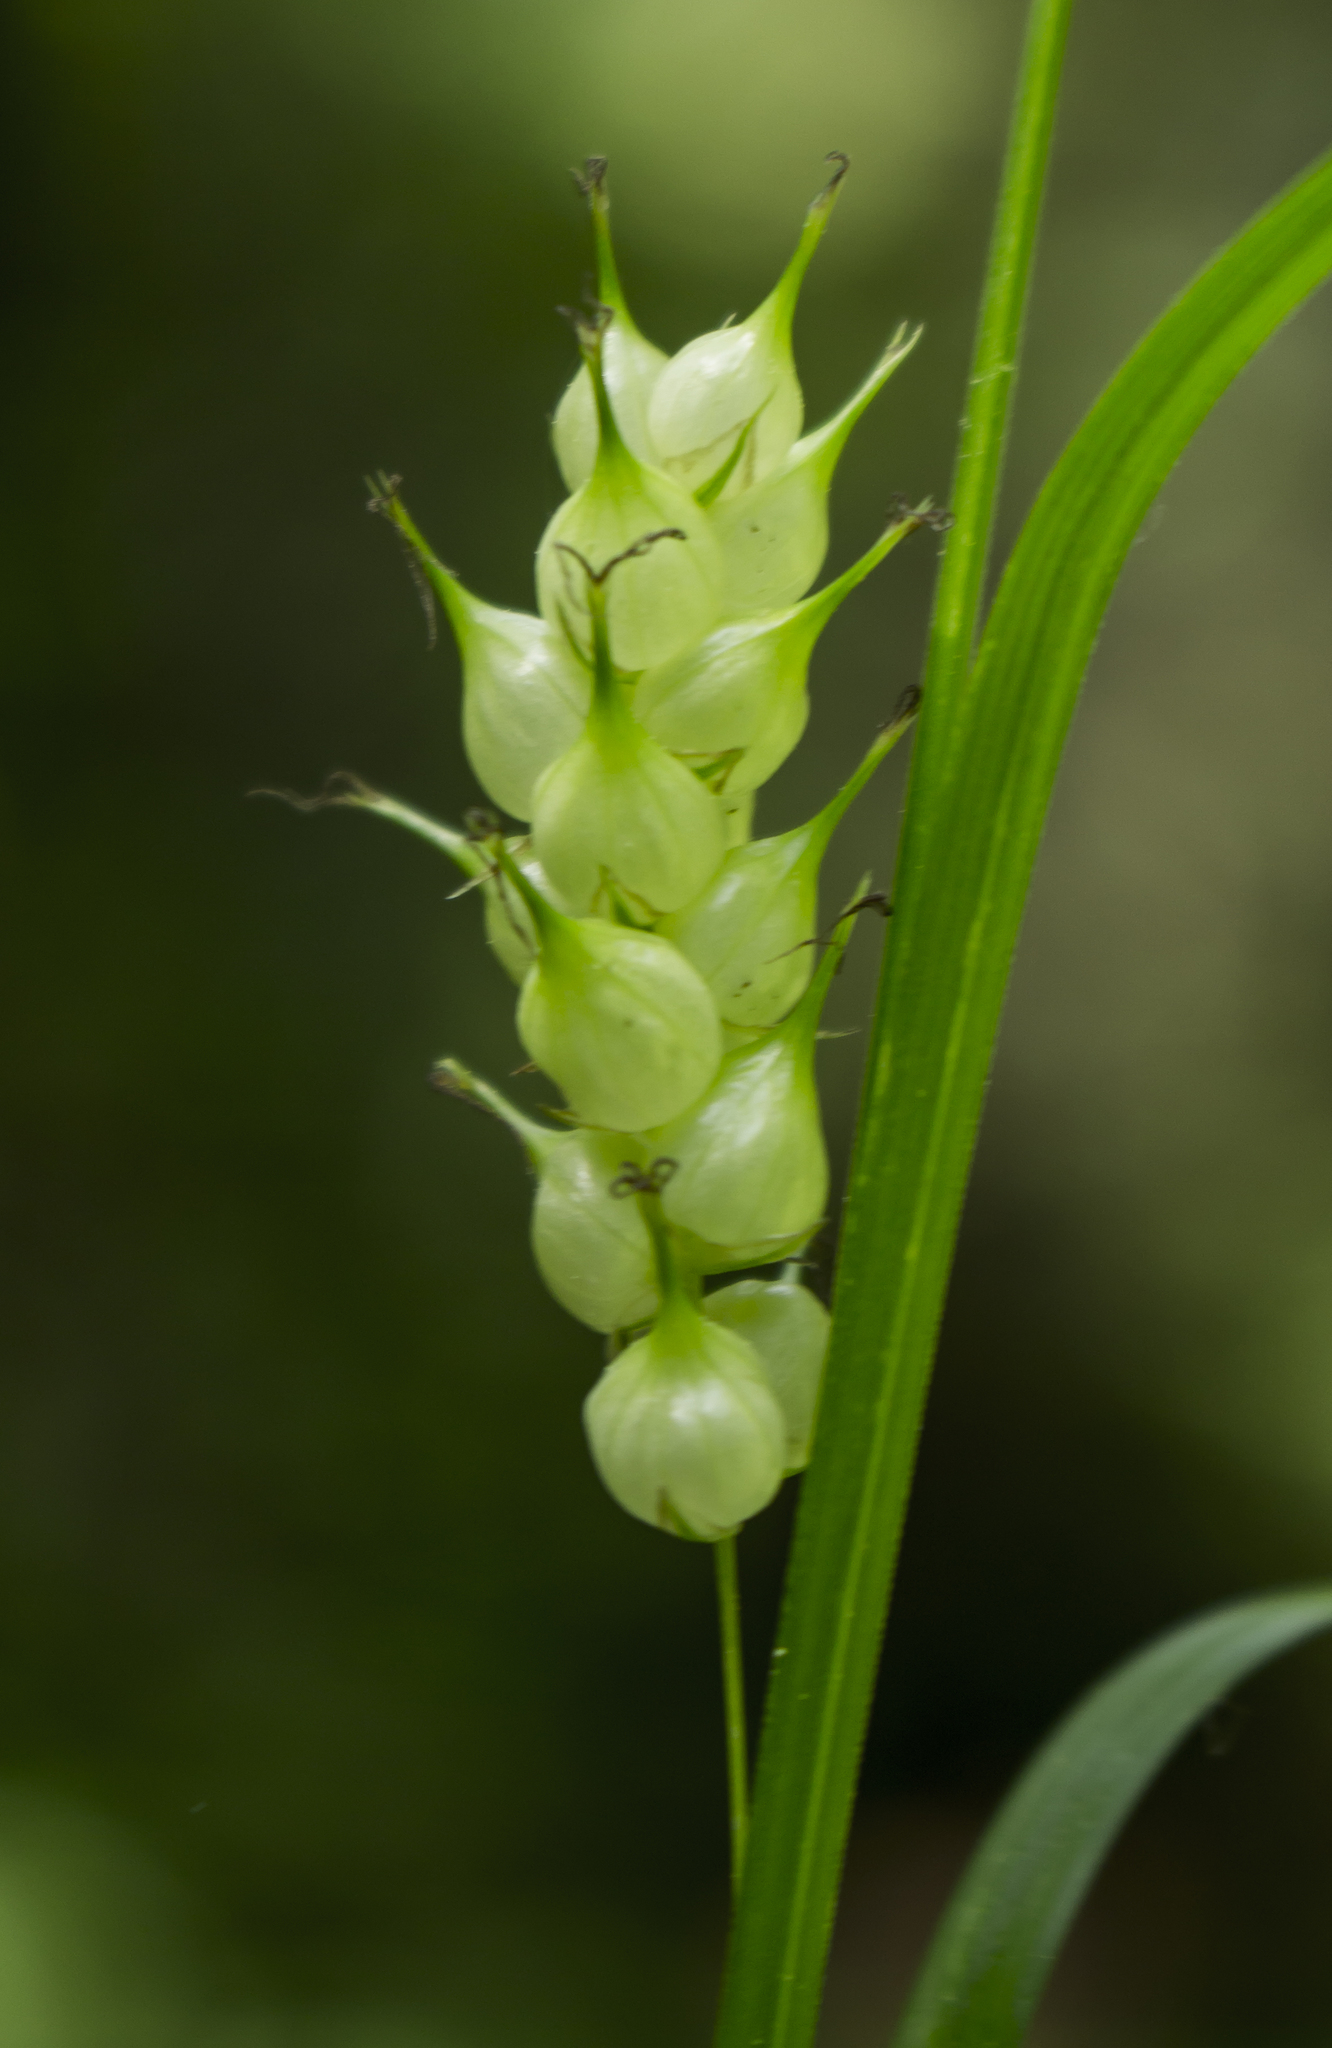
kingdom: Plantae
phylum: Tracheophyta
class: Liliopsida
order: Poales
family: Cyperaceae
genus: Carex
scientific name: Carex tuckermanii
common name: Tuckerman's sedge
